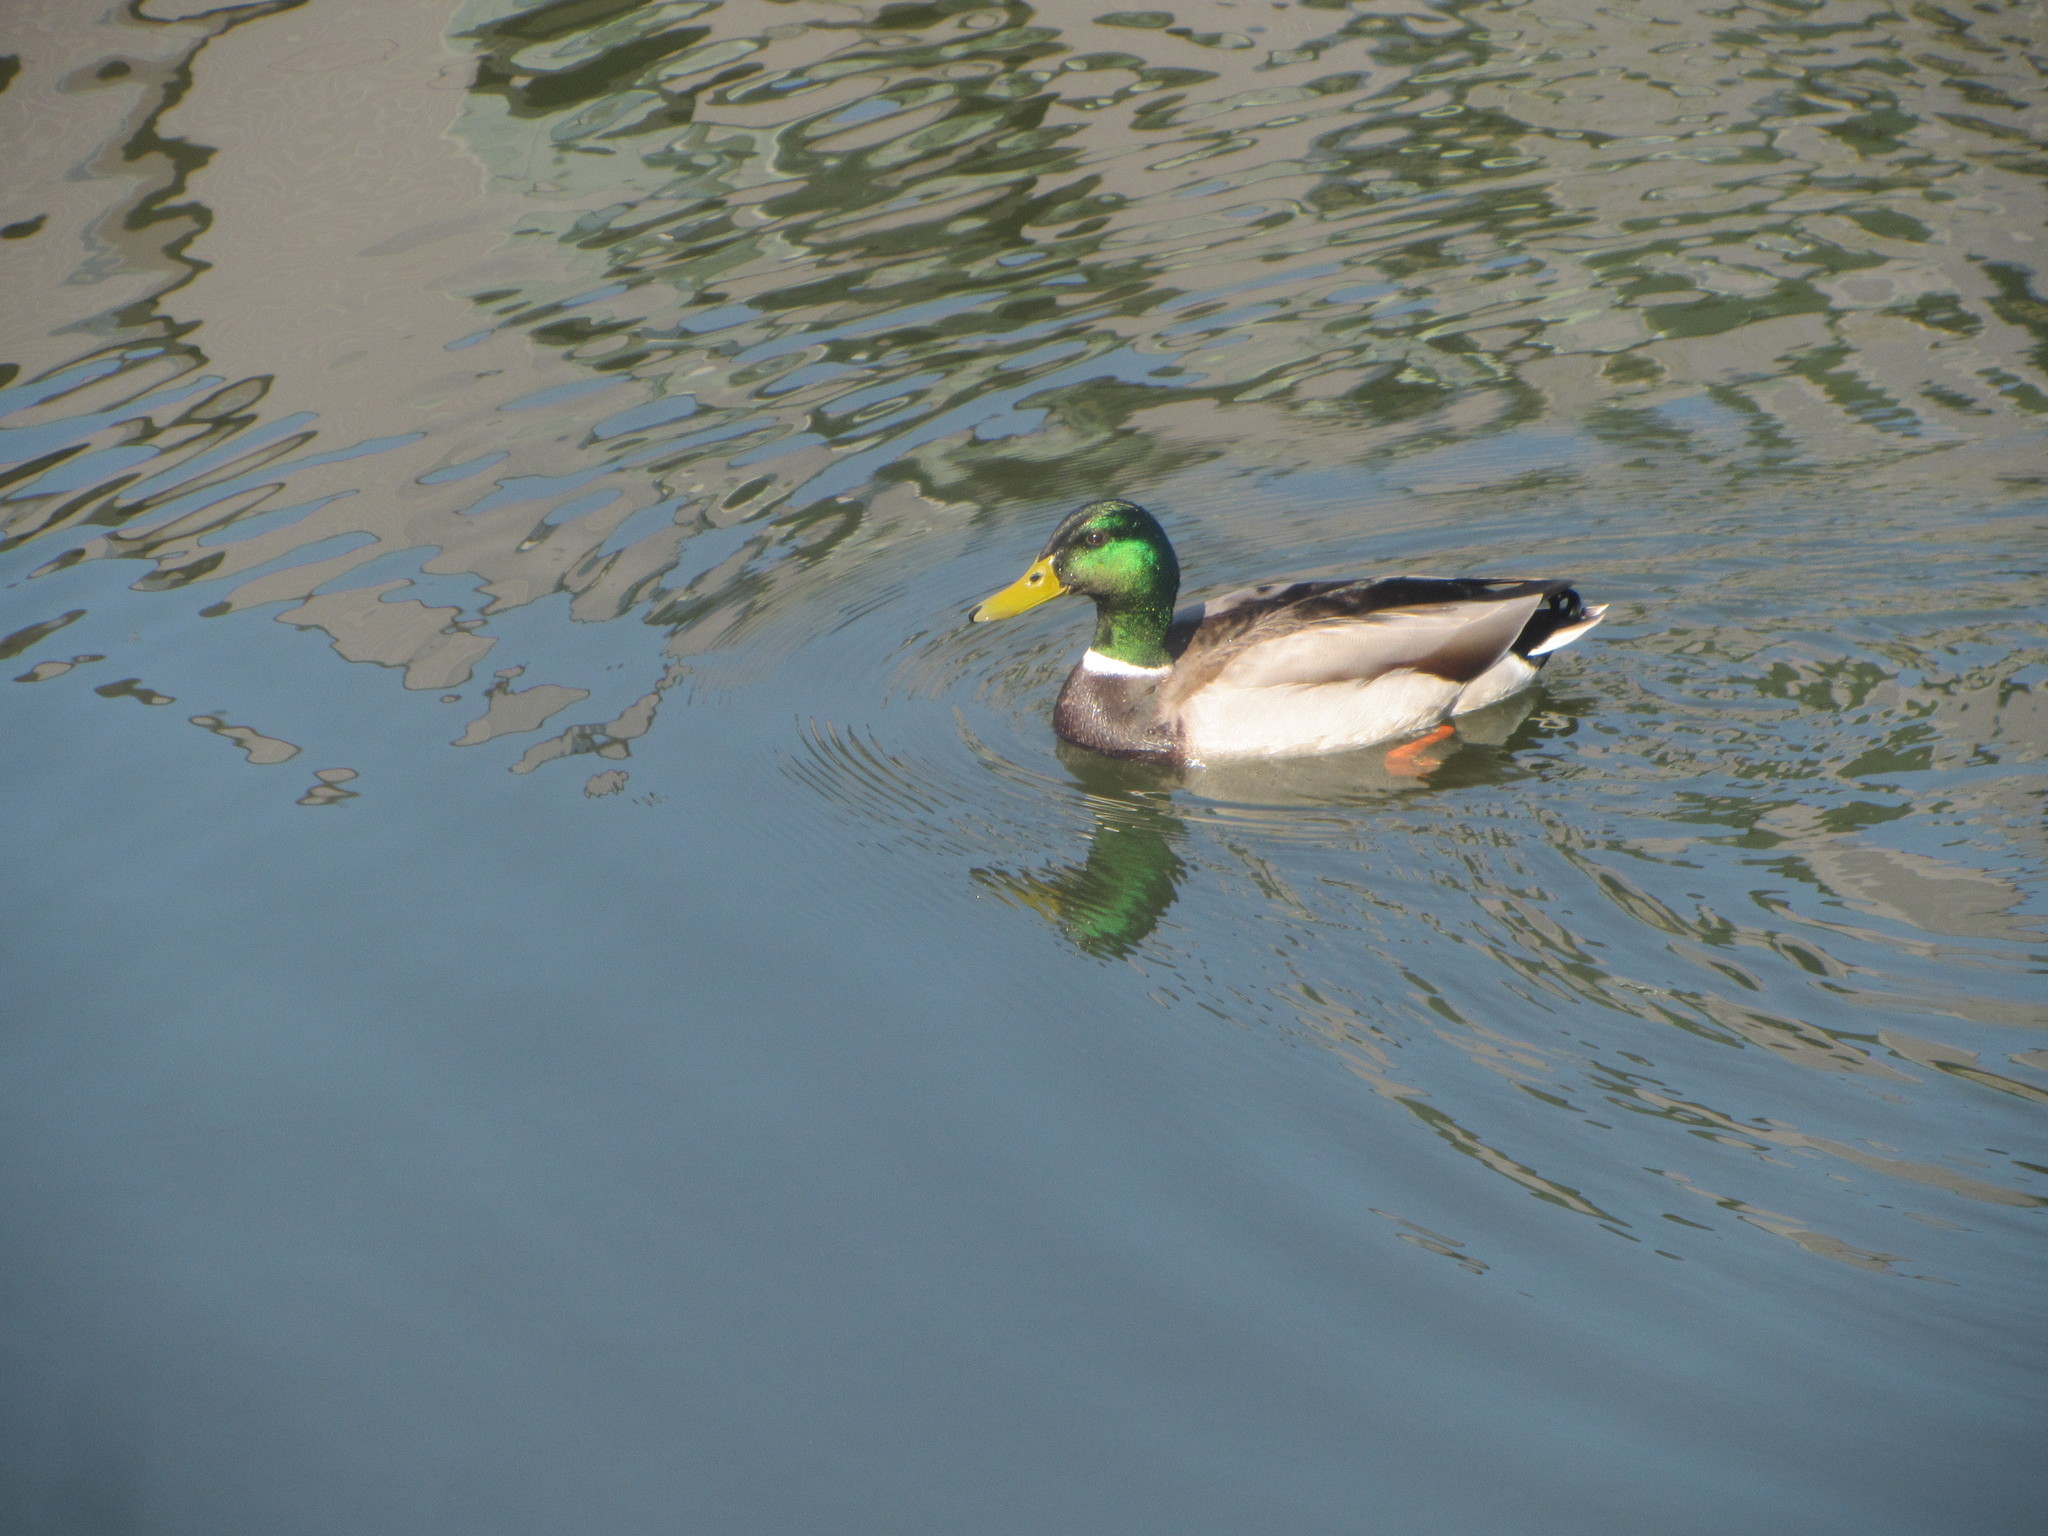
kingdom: Animalia
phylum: Chordata
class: Aves
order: Anseriformes
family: Anatidae
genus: Anas
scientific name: Anas platyrhynchos
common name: Mallard
